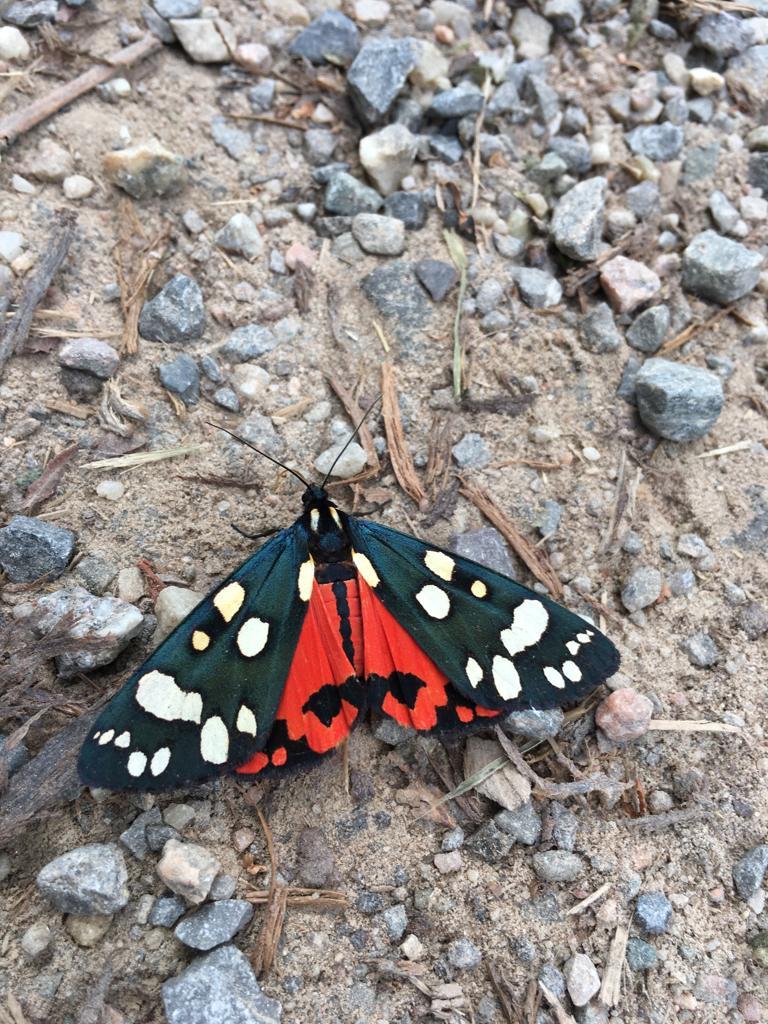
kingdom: Animalia
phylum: Arthropoda
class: Insecta
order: Lepidoptera
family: Erebidae
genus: Callimorpha
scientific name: Callimorpha dominula
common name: Scarlet tiger
